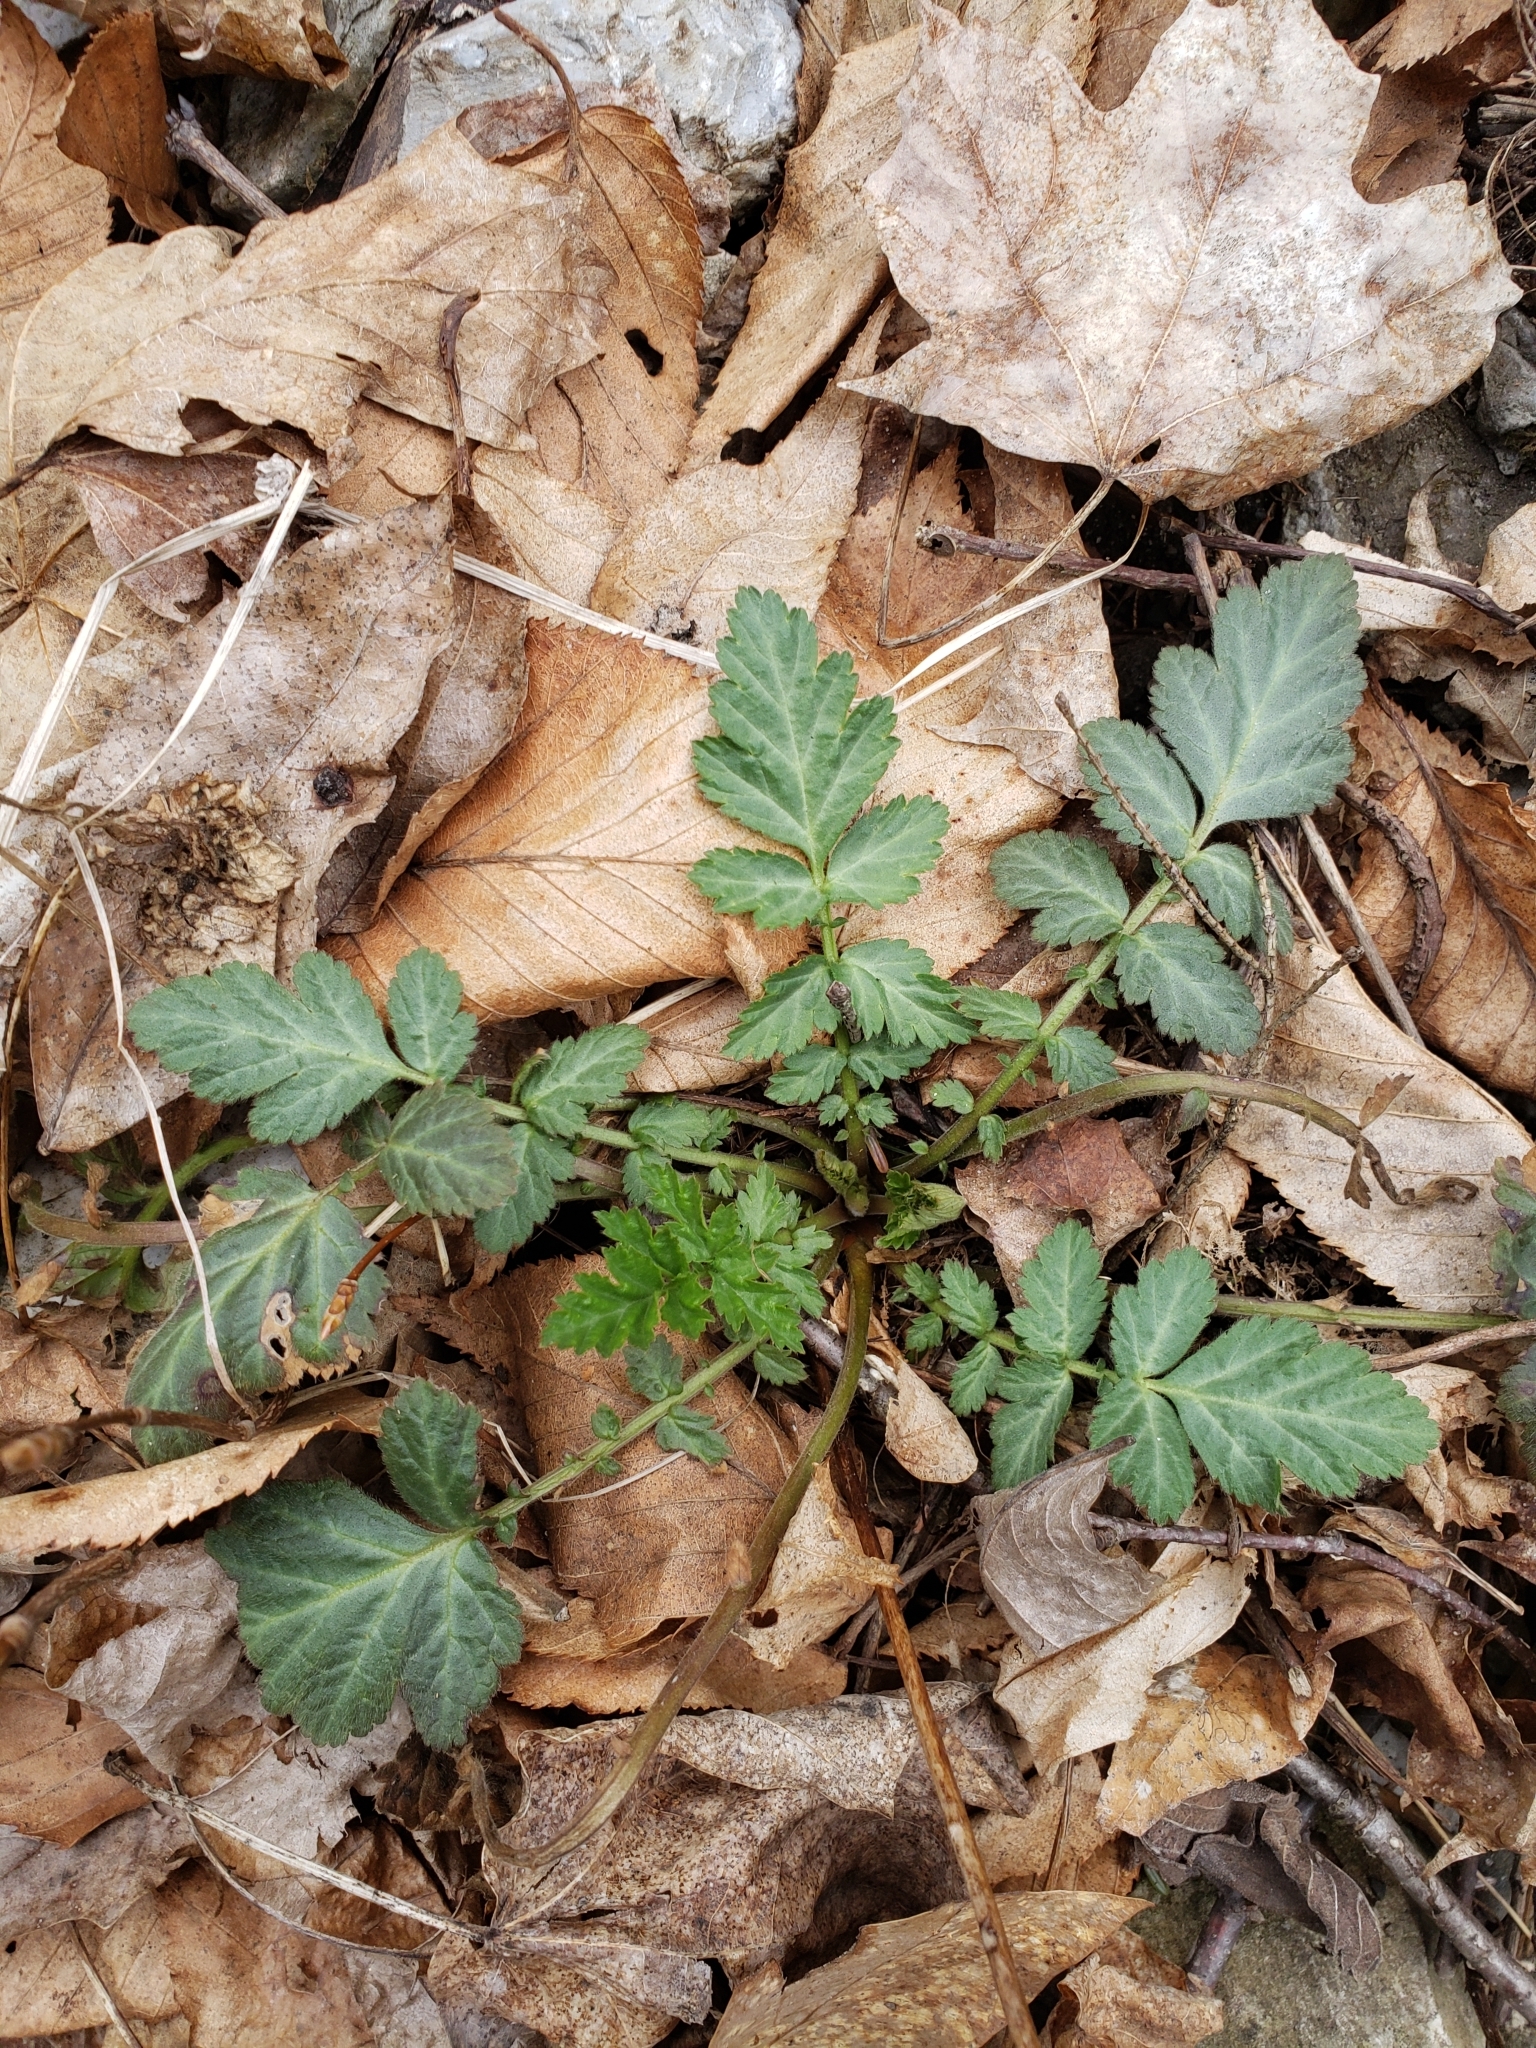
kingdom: Plantae
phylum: Tracheophyta
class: Magnoliopsida
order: Rosales
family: Rosaceae
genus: Geum
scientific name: Geum canadense
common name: White avens
